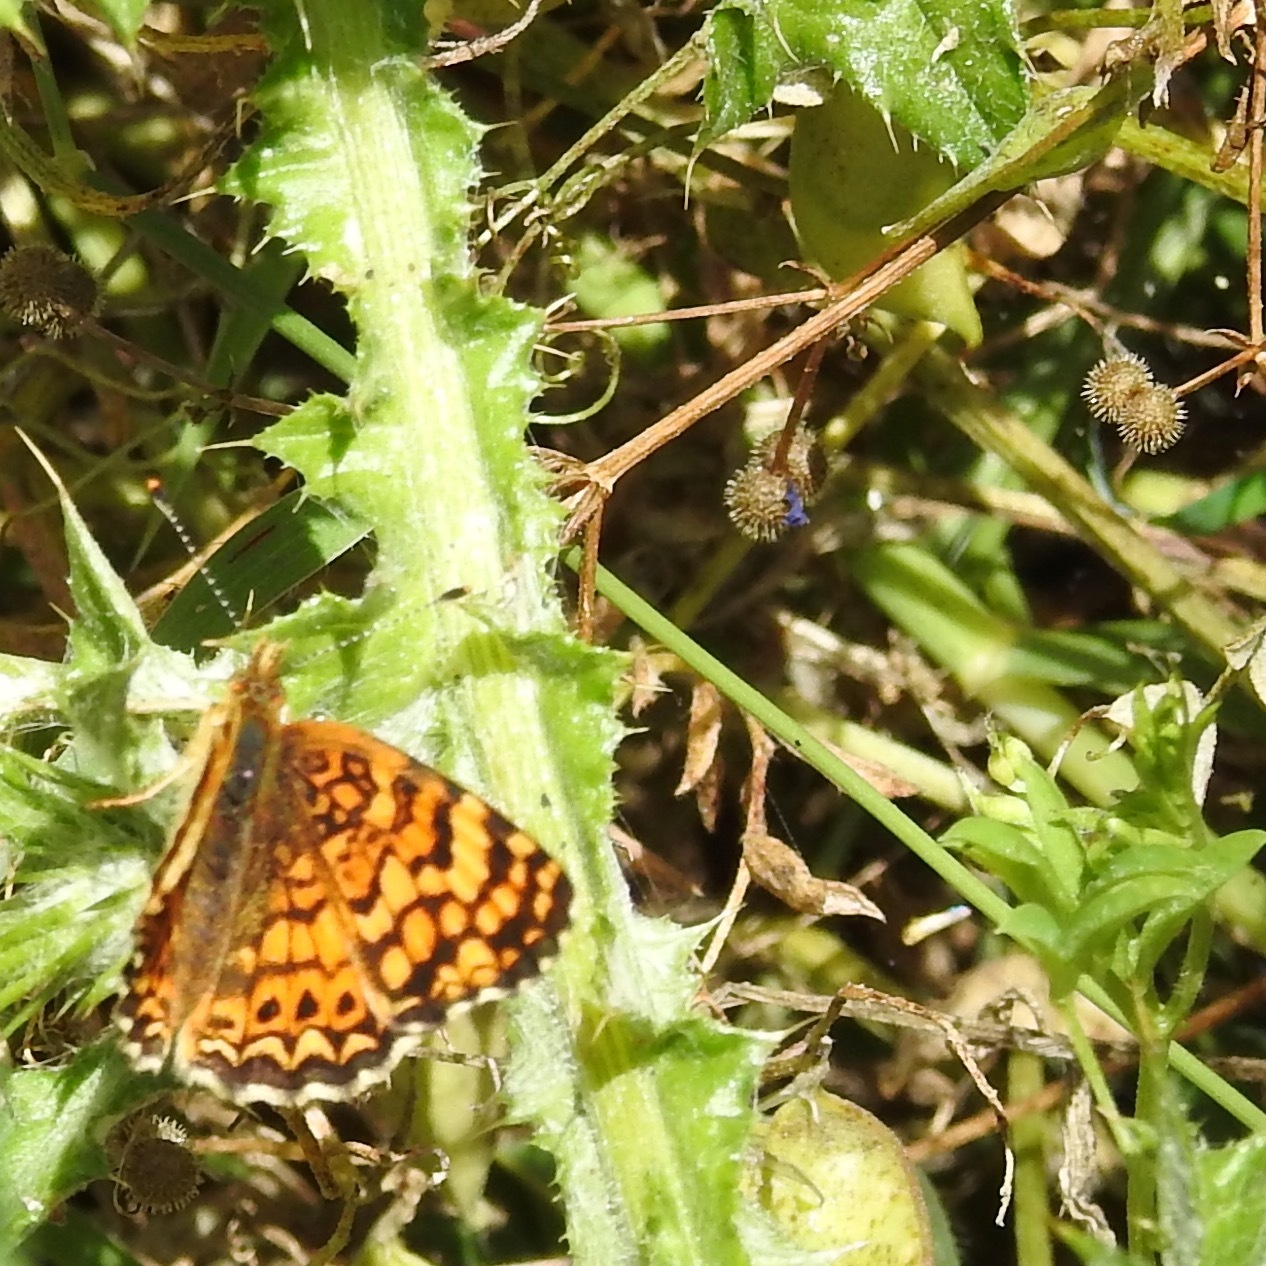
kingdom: Animalia
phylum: Arthropoda
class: Insecta
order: Lepidoptera
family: Nymphalidae
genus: Eresia
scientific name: Eresia aveyrona
